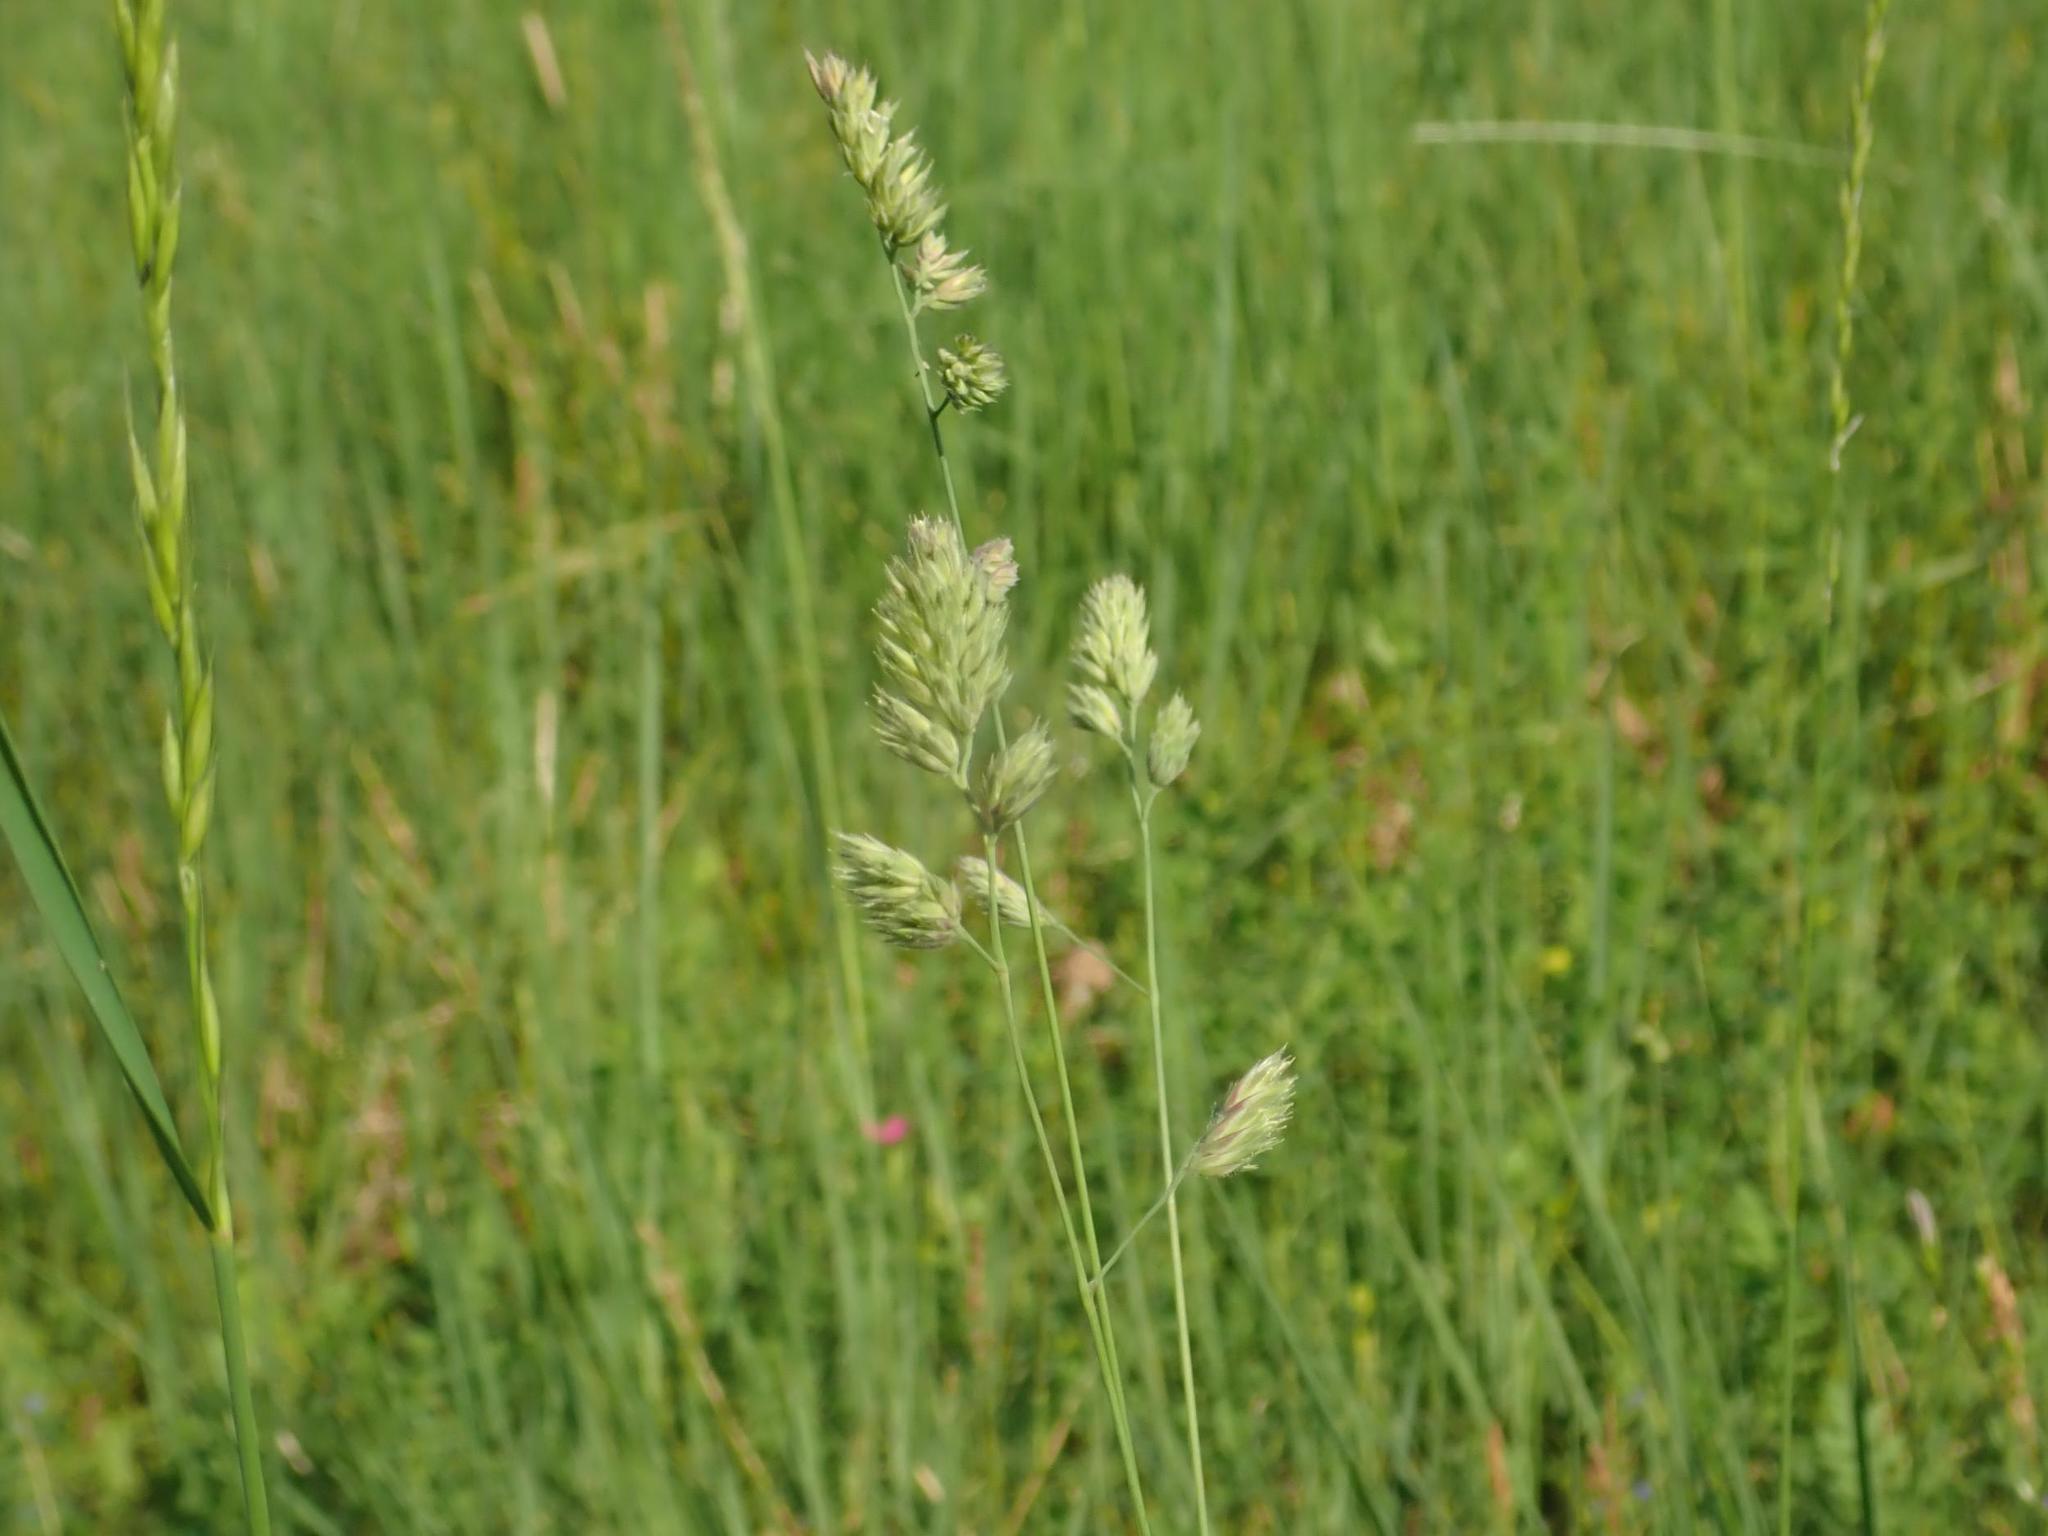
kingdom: Plantae
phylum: Tracheophyta
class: Liliopsida
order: Poales
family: Poaceae
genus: Dactylis
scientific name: Dactylis glomerata
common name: Orchardgrass
